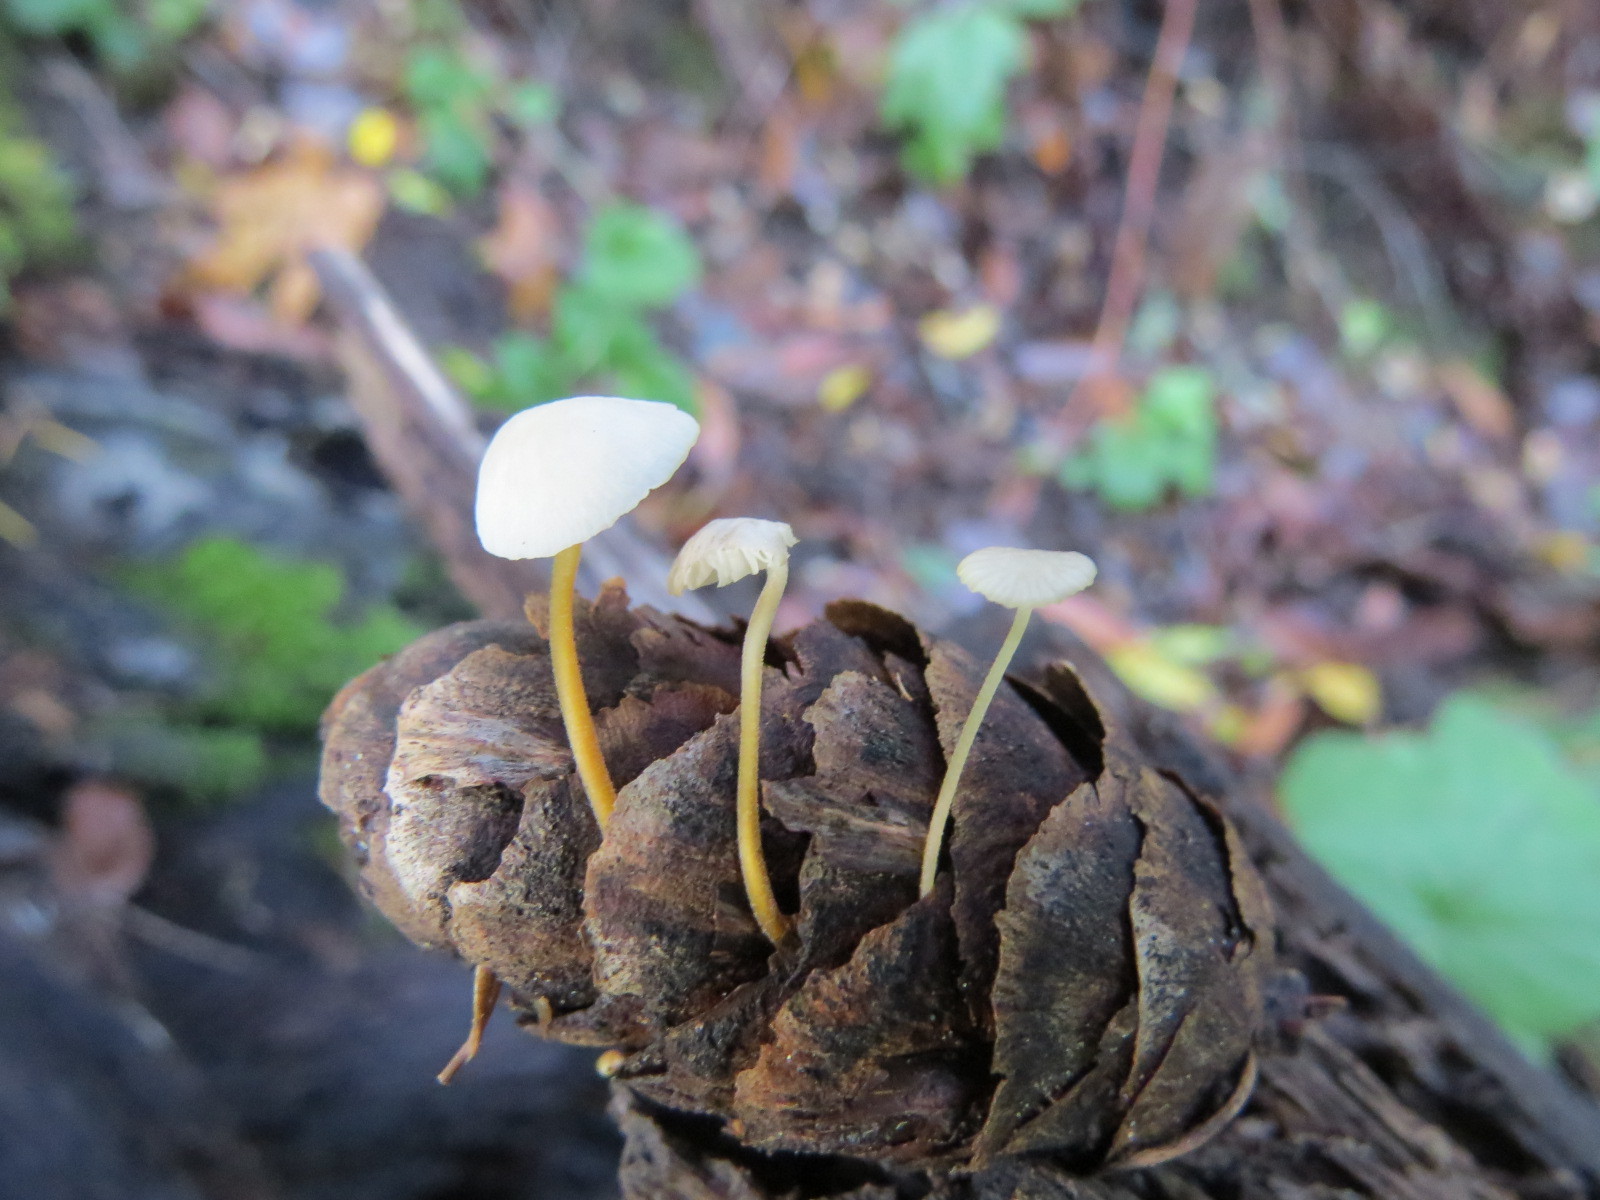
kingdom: Fungi
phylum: Basidiomycota
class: Agaricomycetes
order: Agaricales
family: Physalacriaceae
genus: Strobilurus
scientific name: Strobilurus trullisatus
